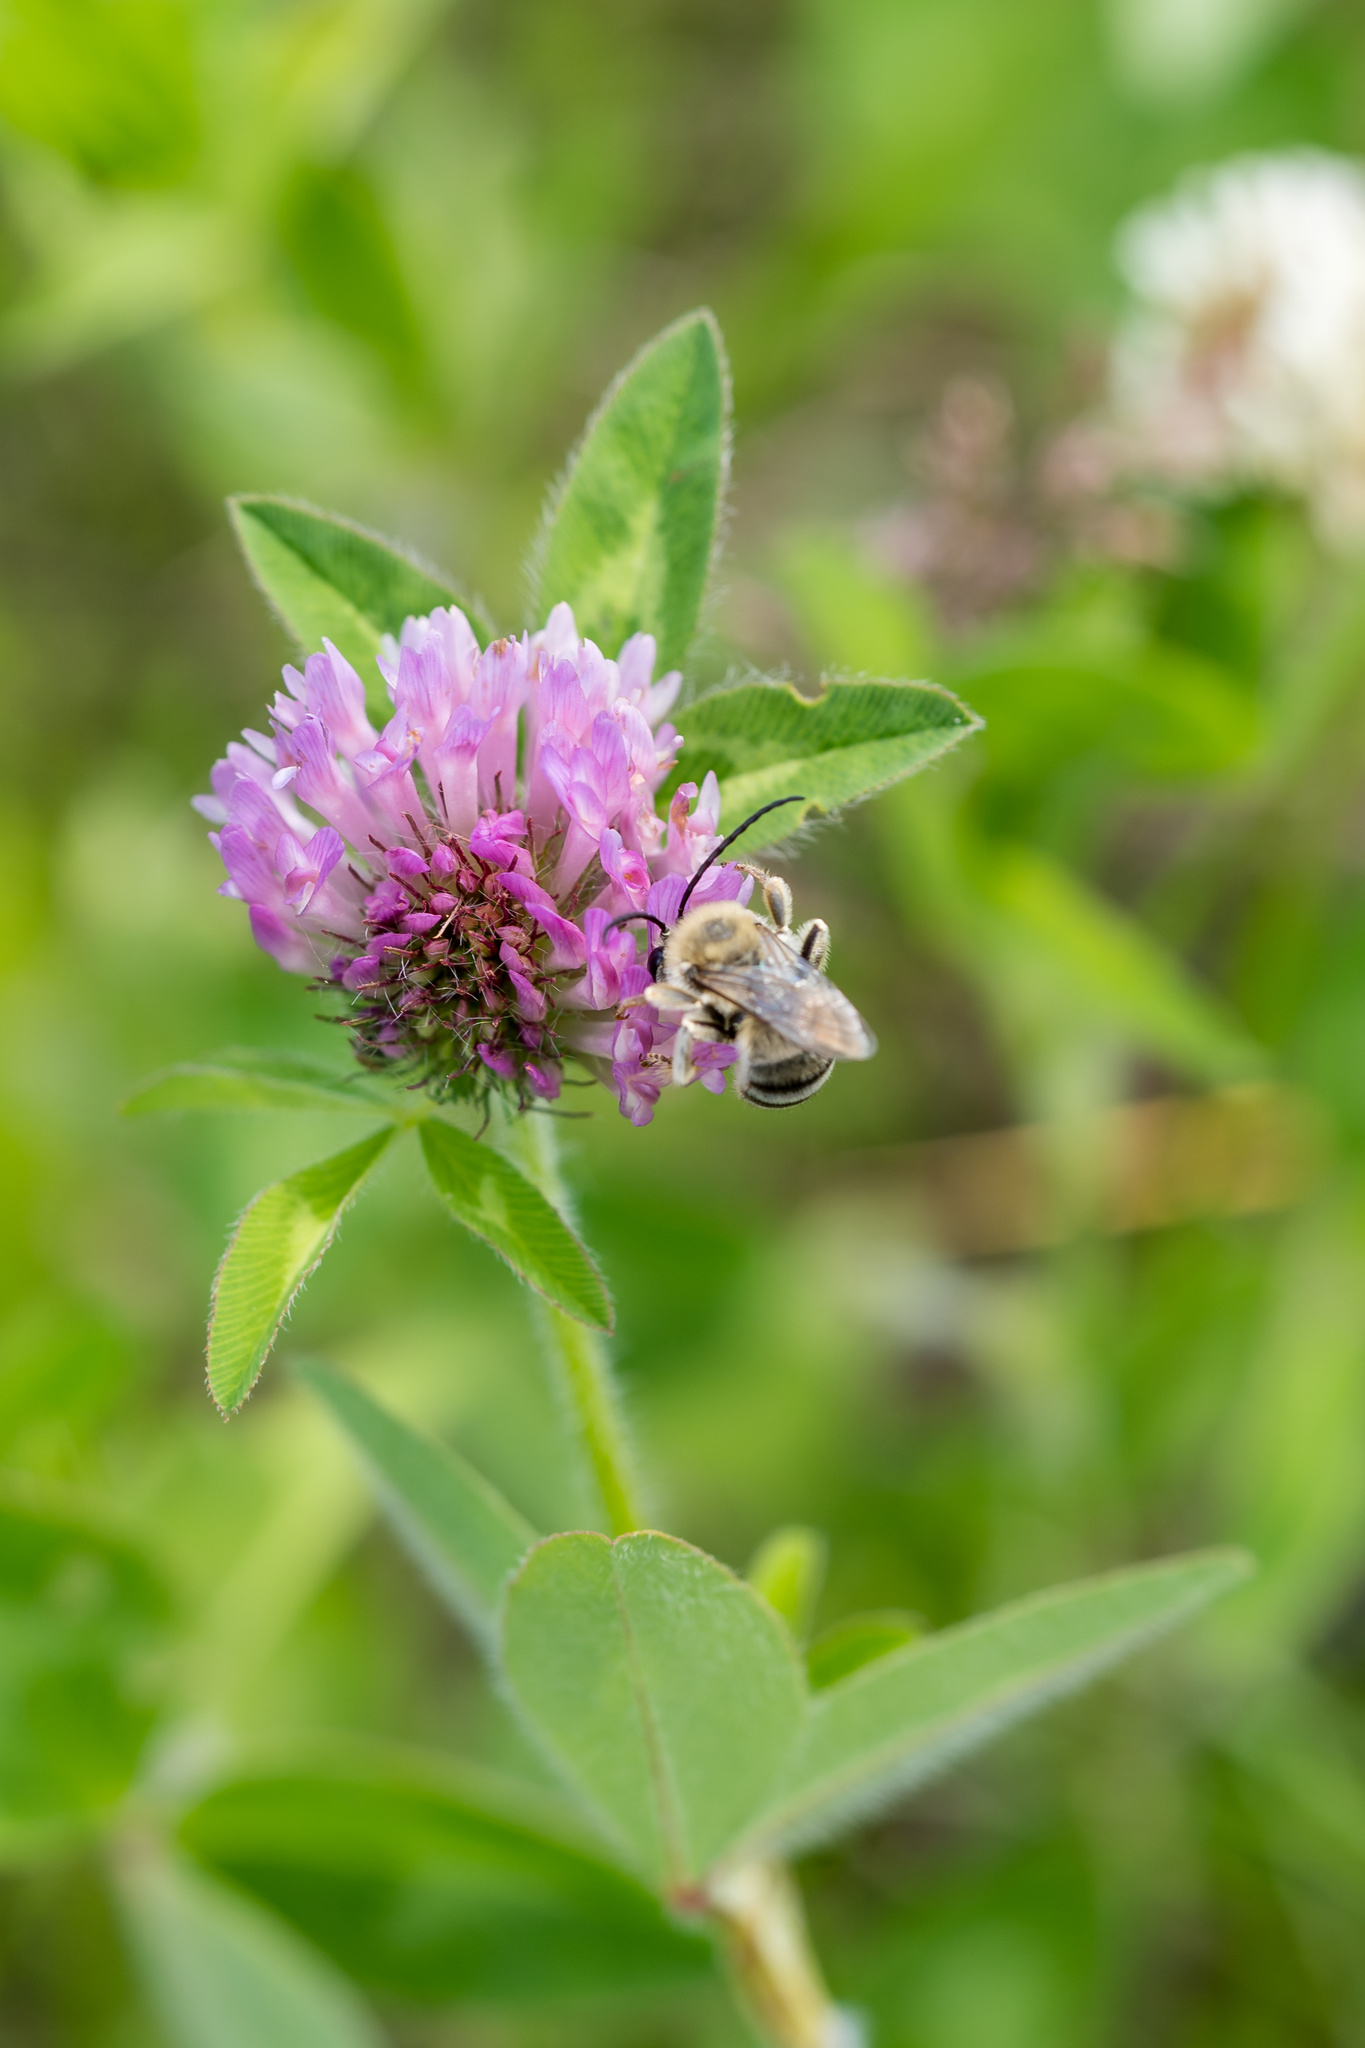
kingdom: Plantae
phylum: Tracheophyta
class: Magnoliopsida
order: Fabales
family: Fabaceae
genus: Trifolium
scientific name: Trifolium pratense
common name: Red clover
